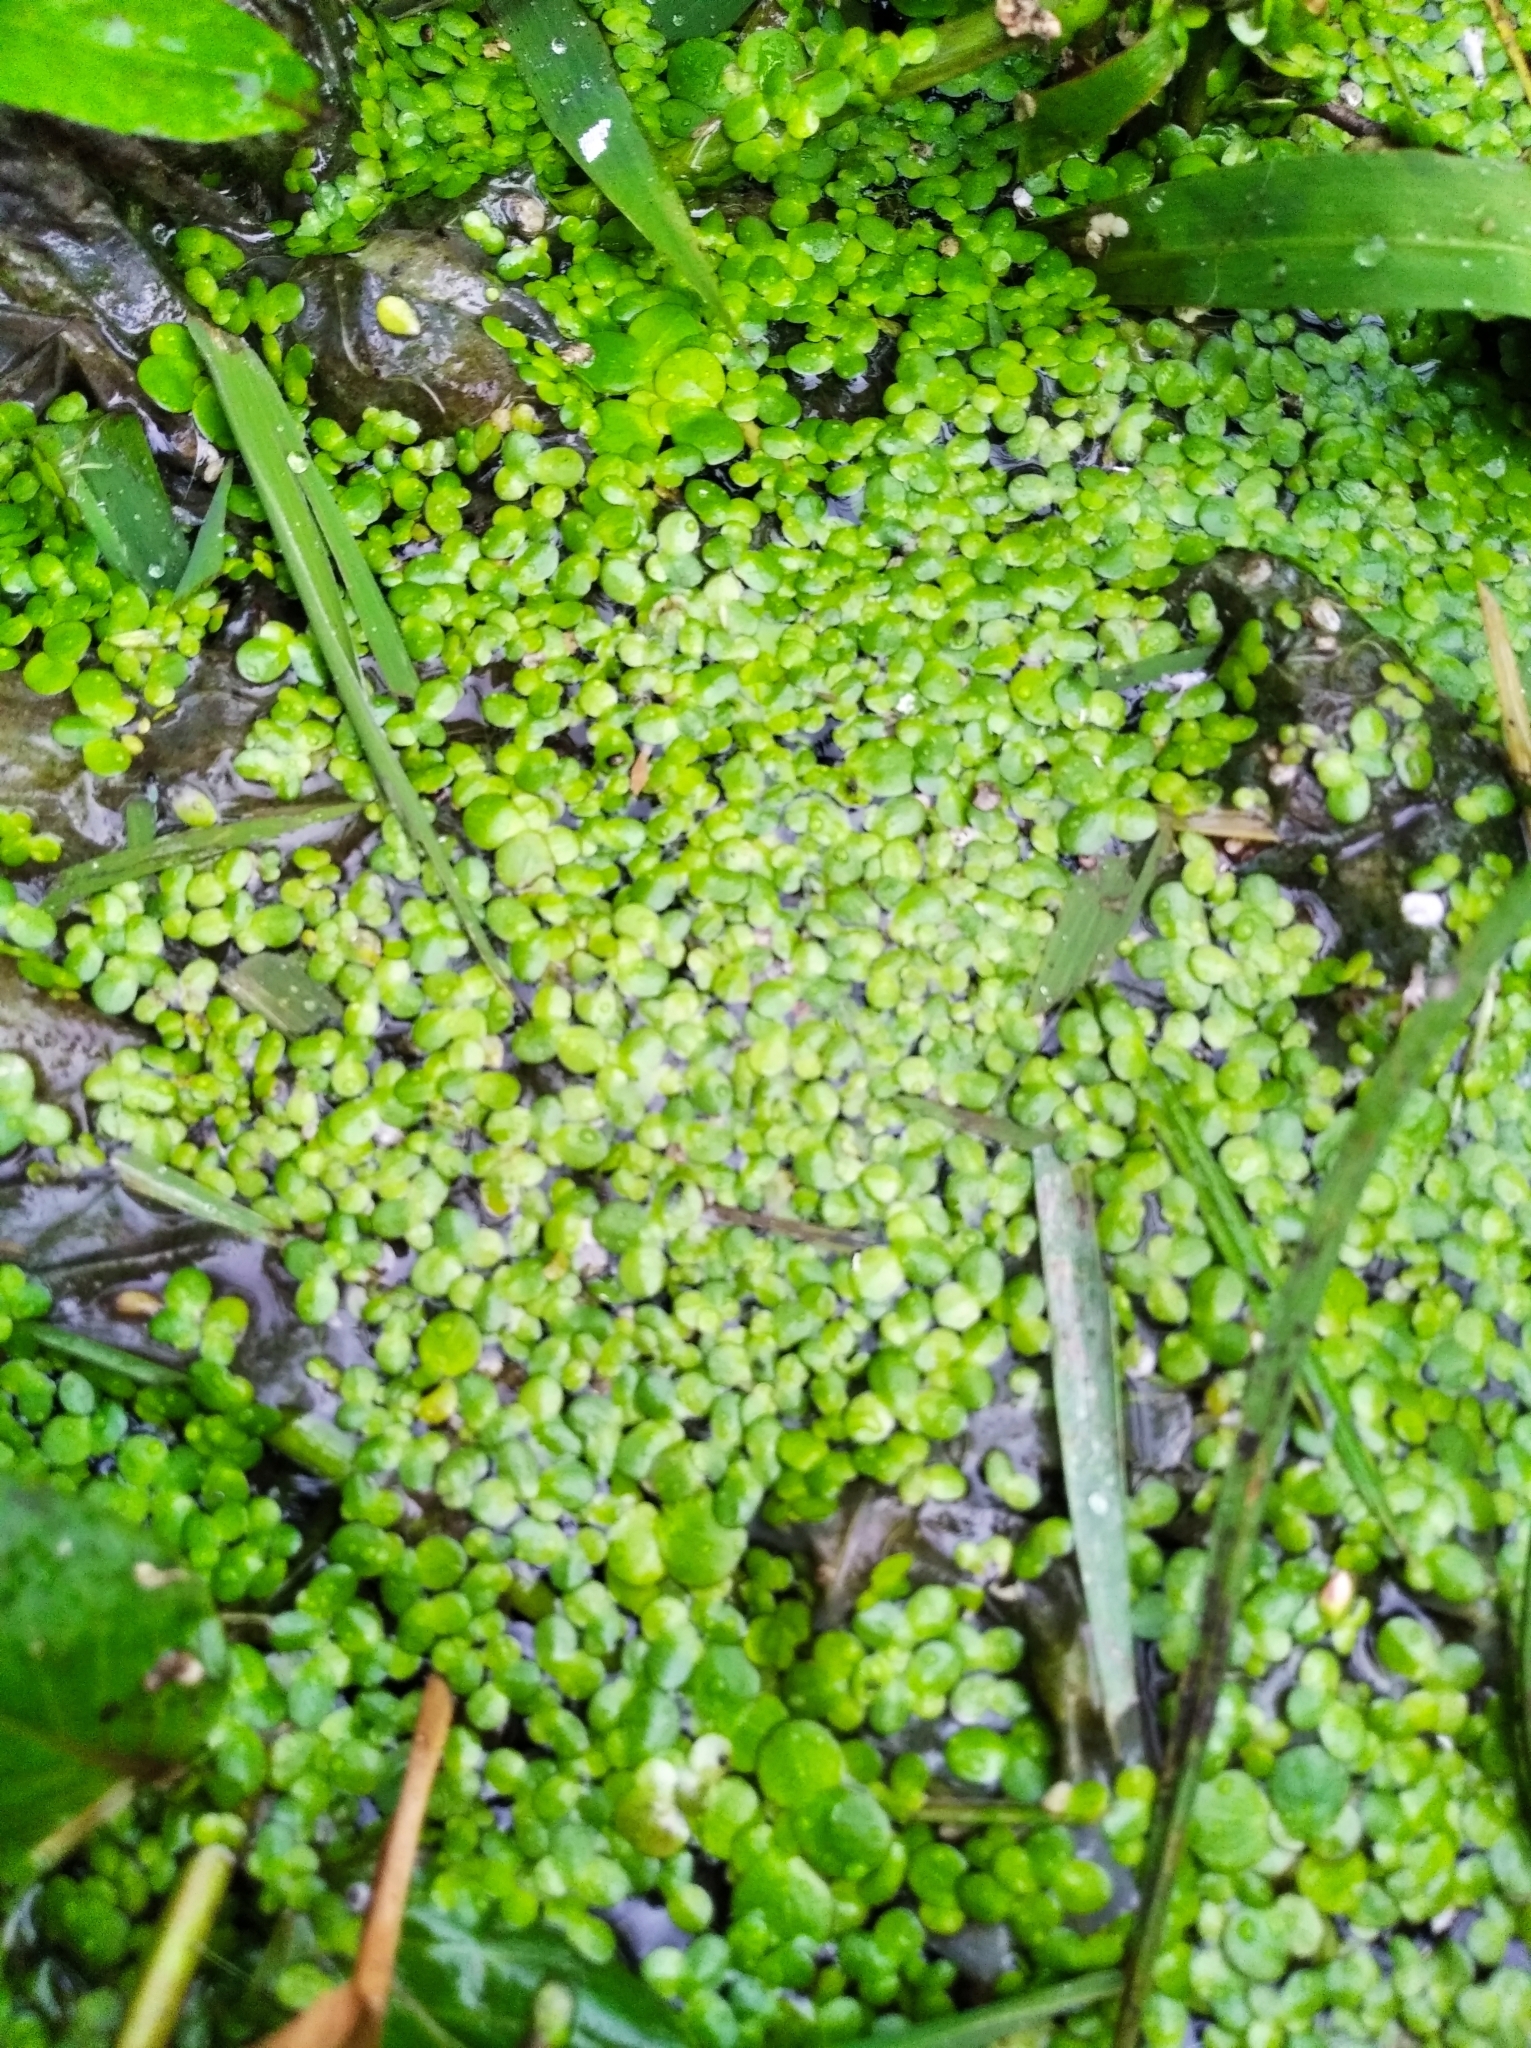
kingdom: Plantae
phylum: Tracheophyta
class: Liliopsida
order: Alismatales
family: Araceae
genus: Lemna
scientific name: Lemna minor
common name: Common duckweed
